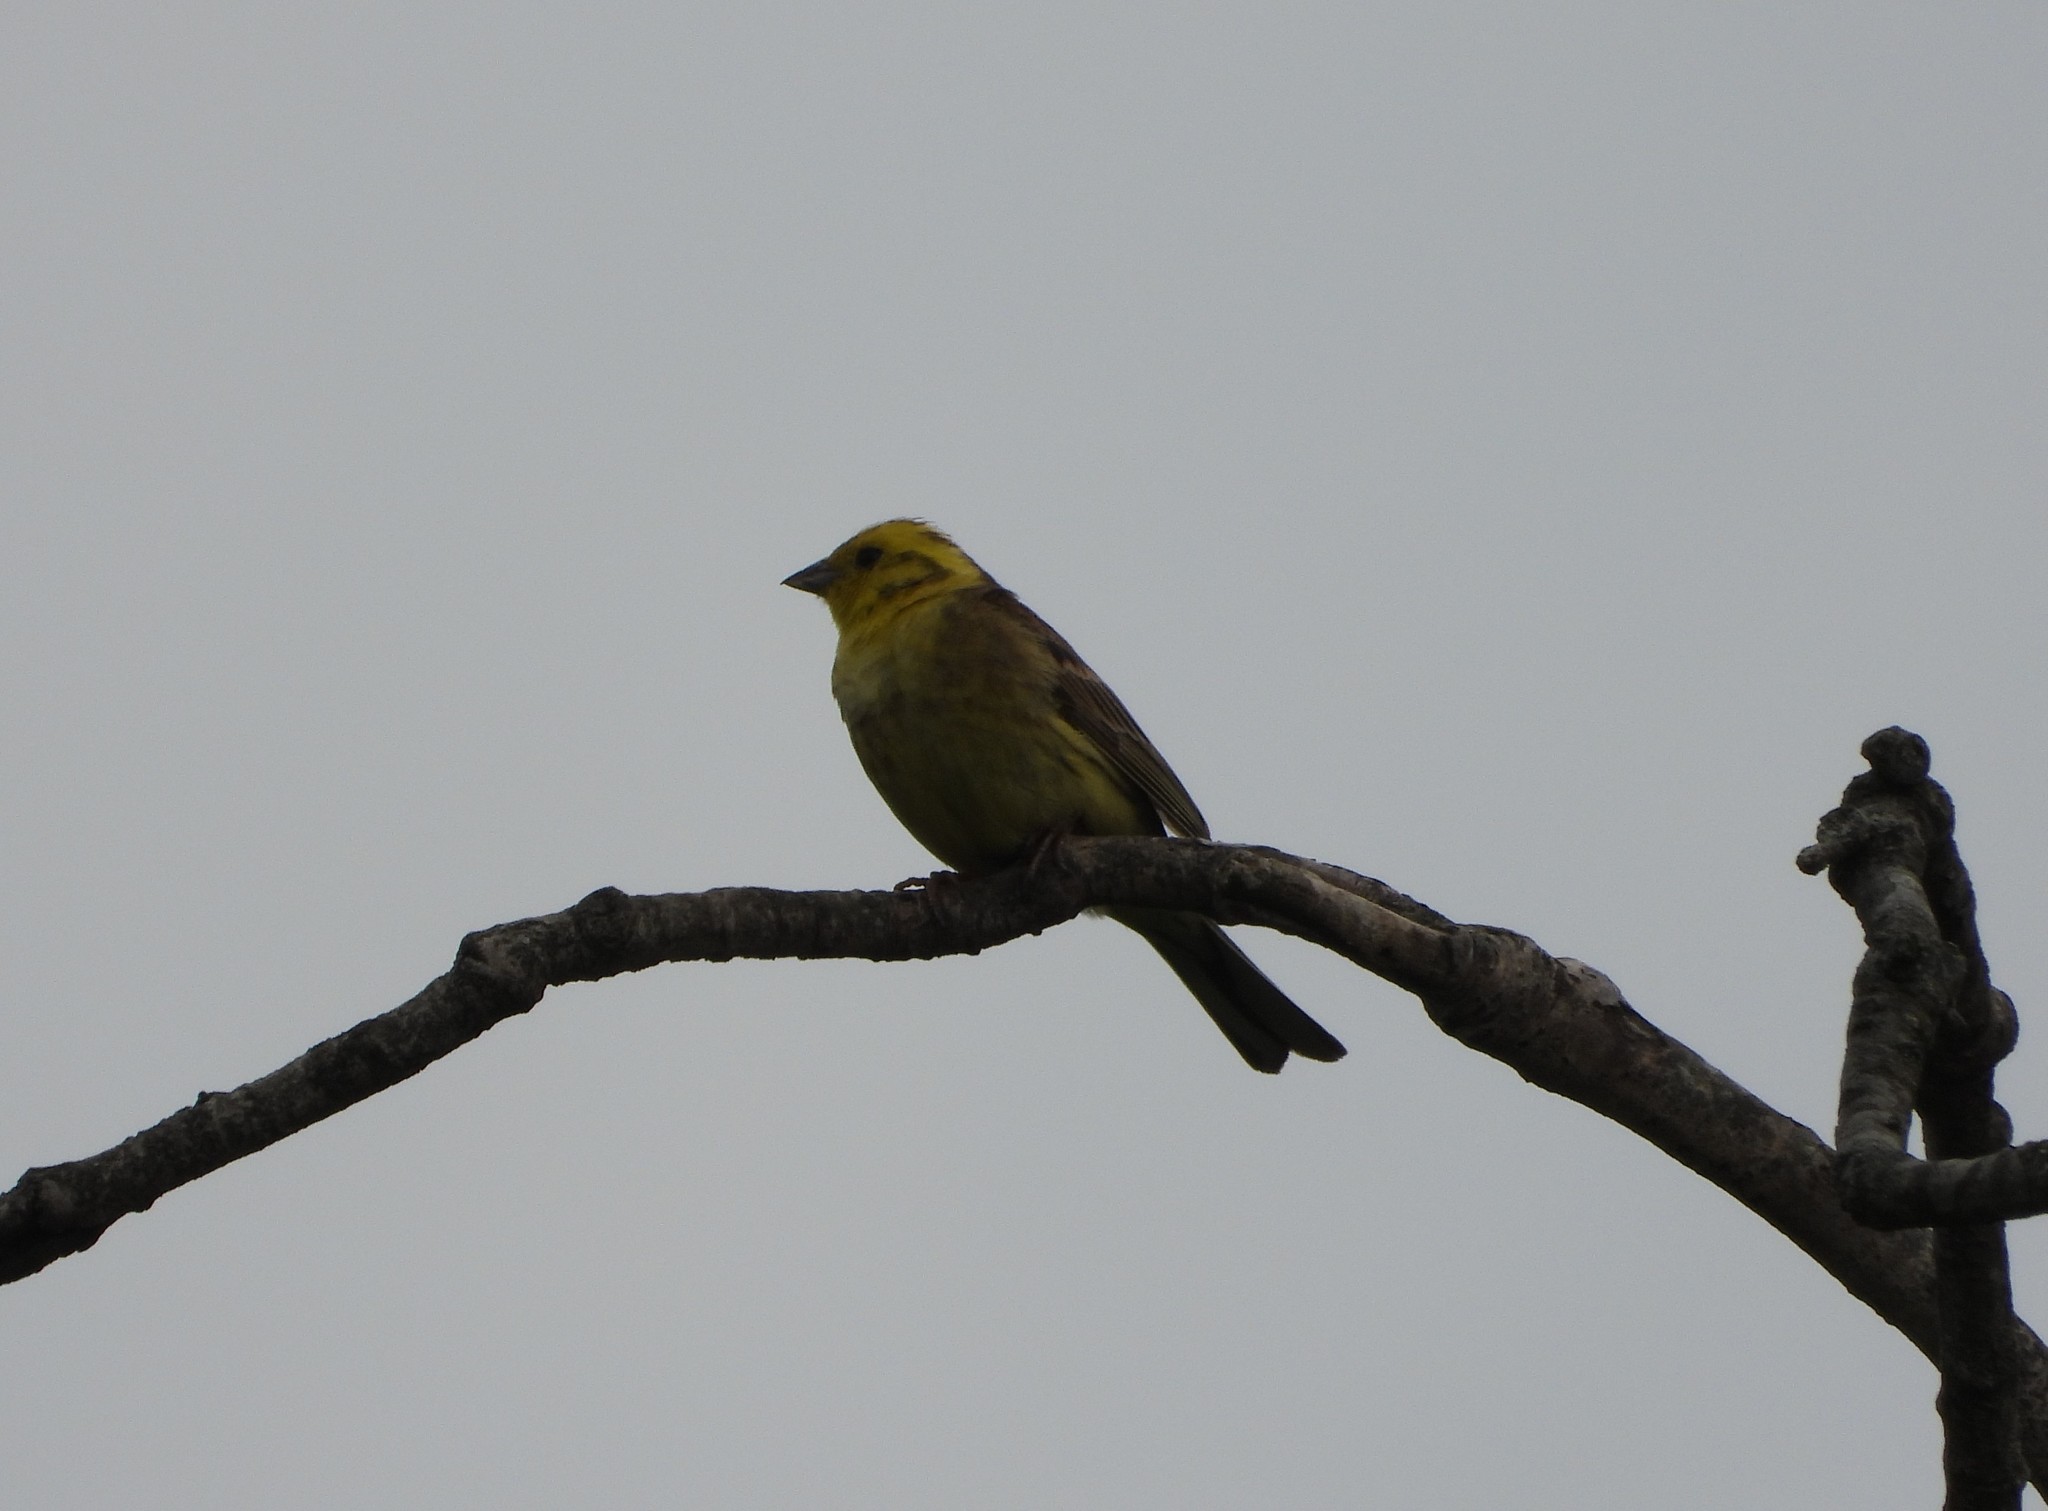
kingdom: Animalia
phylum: Chordata
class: Aves
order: Passeriformes
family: Emberizidae
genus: Emberiza
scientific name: Emberiza citrinella
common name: Yellowhammer
